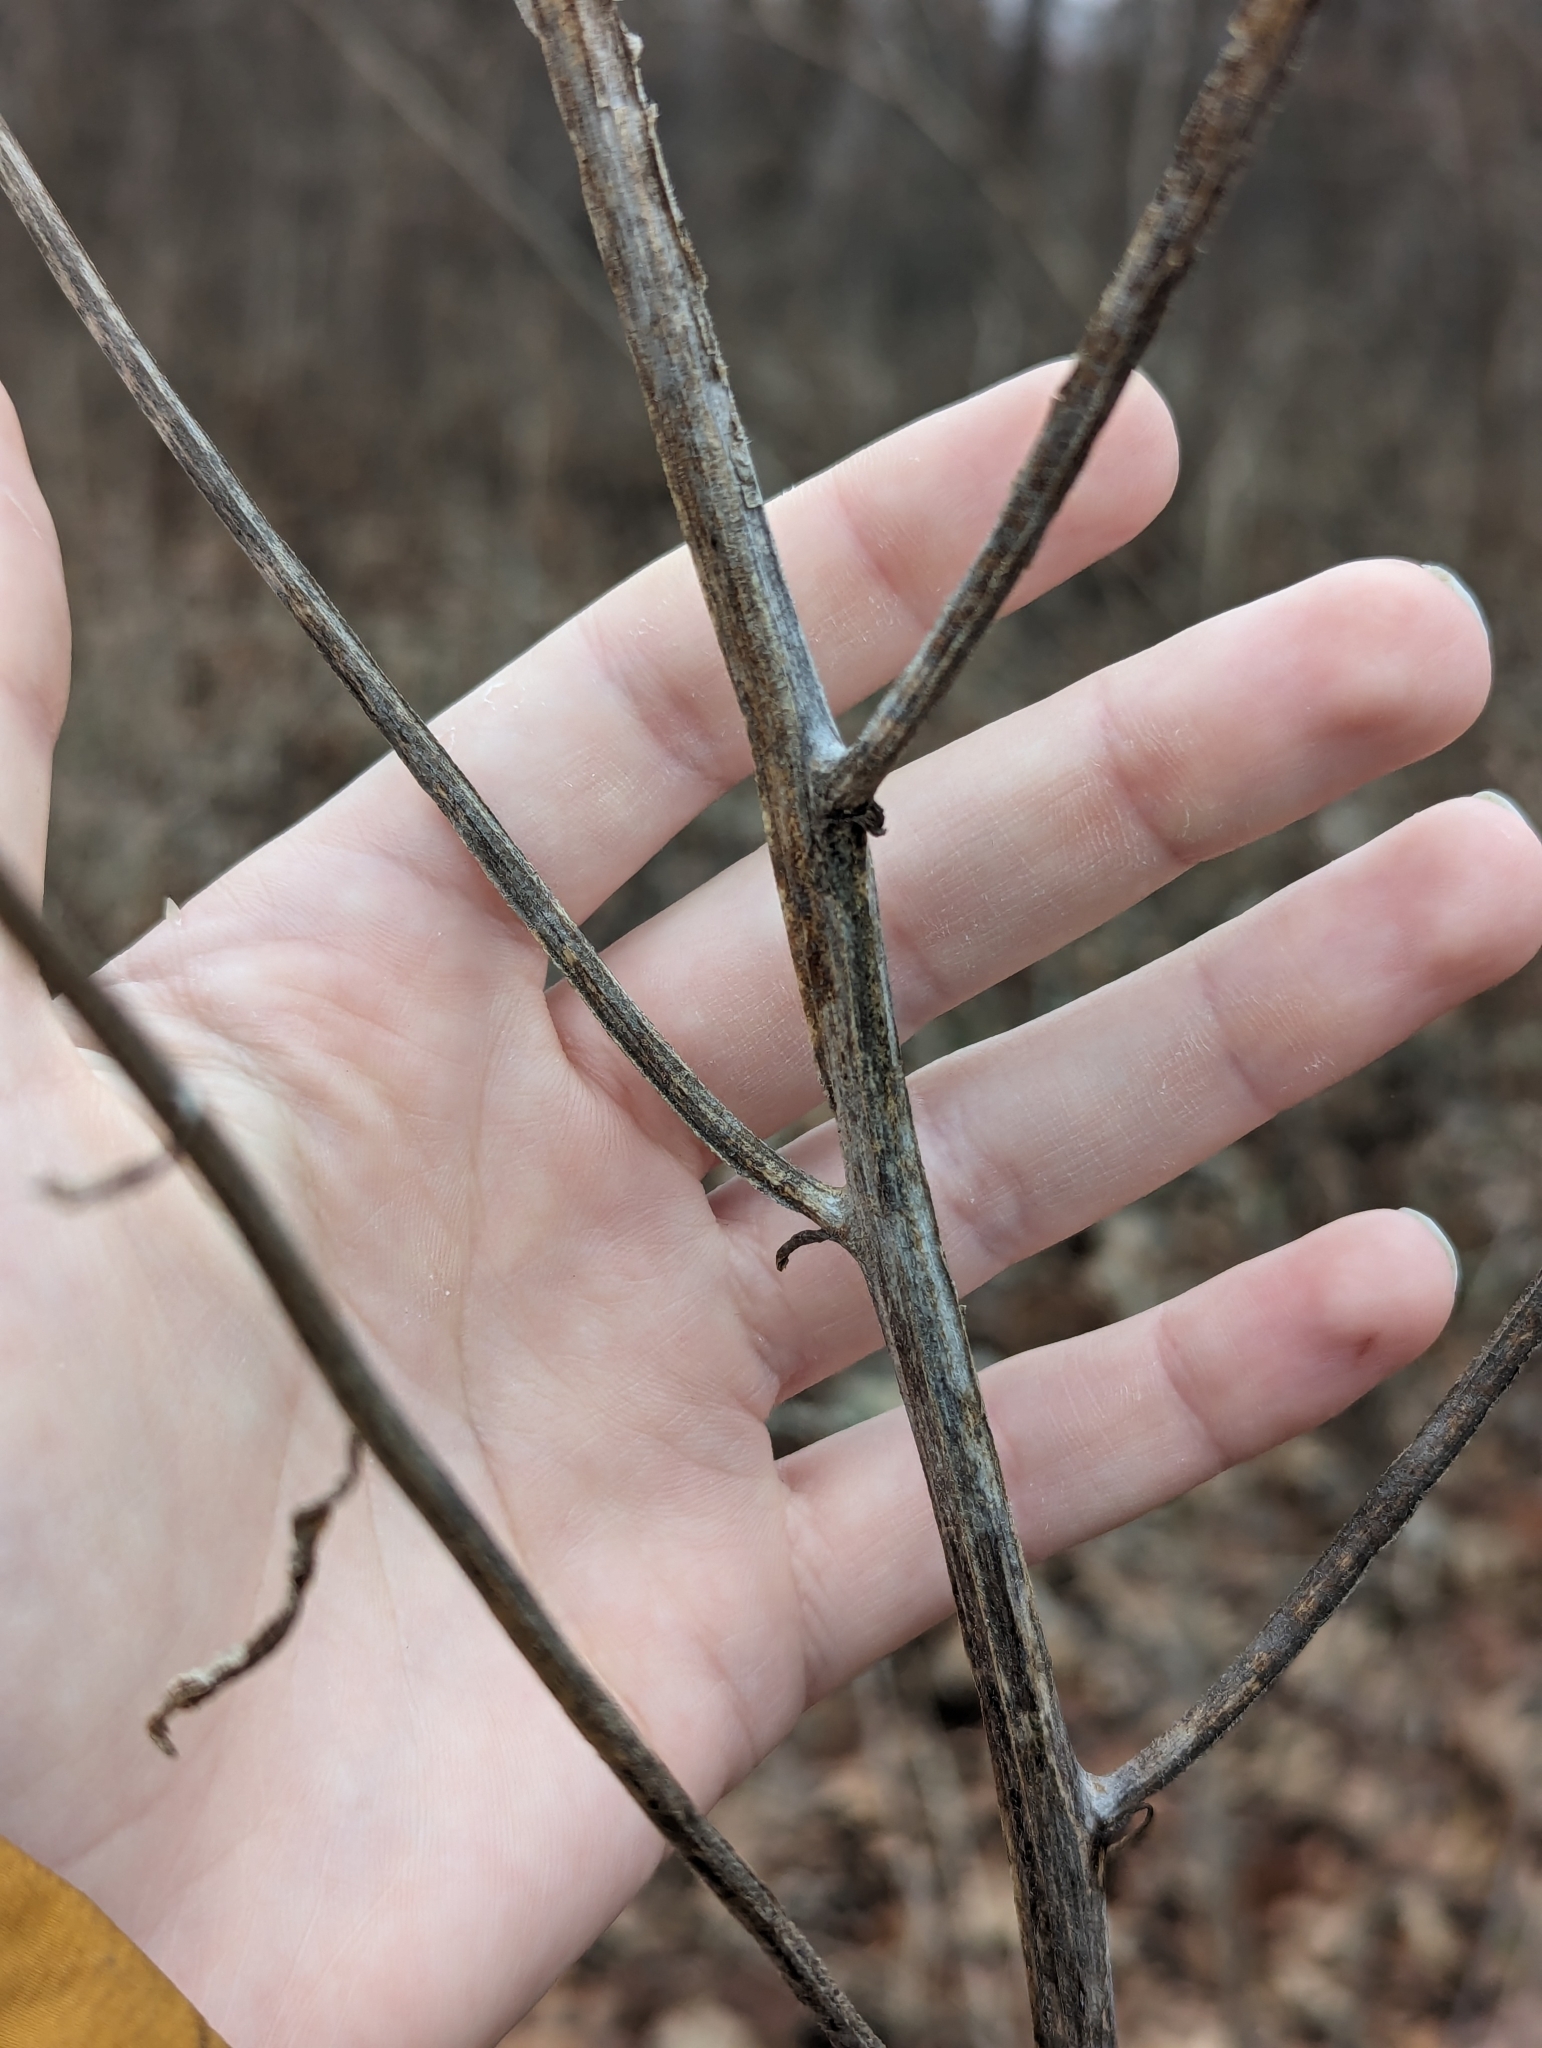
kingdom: Plantae
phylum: Tracheophyta
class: Magnoliopsida
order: Asterales
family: Asteraceae
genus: Verbesina
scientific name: Verbesina alternifolia
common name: Wingstem
